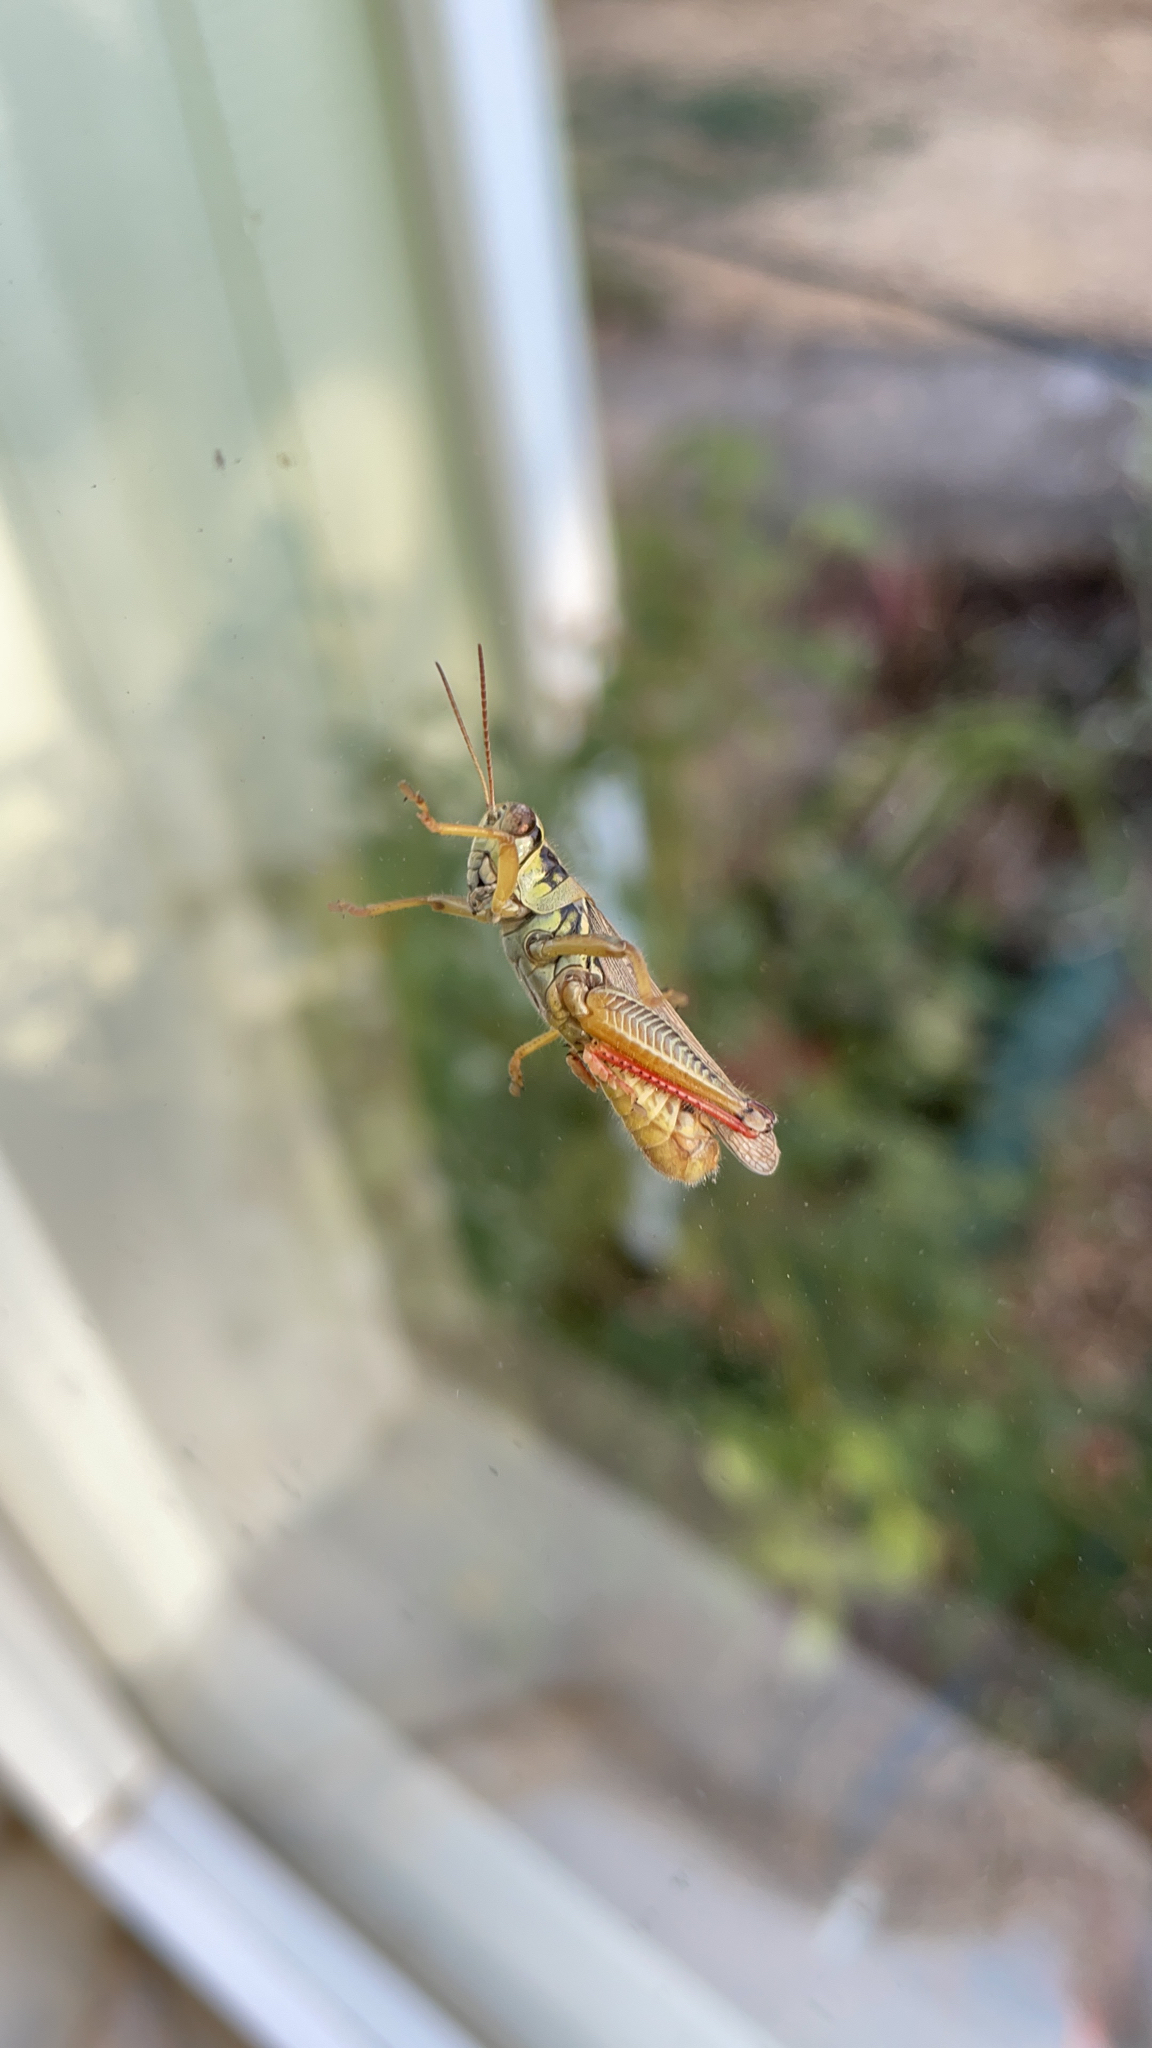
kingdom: Animalia
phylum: Arthropoda
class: Insecta
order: Orthoptera
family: Acrididae
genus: Melanoplus
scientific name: Melanoplus femurrubrum
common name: Red-legged grasshopper
